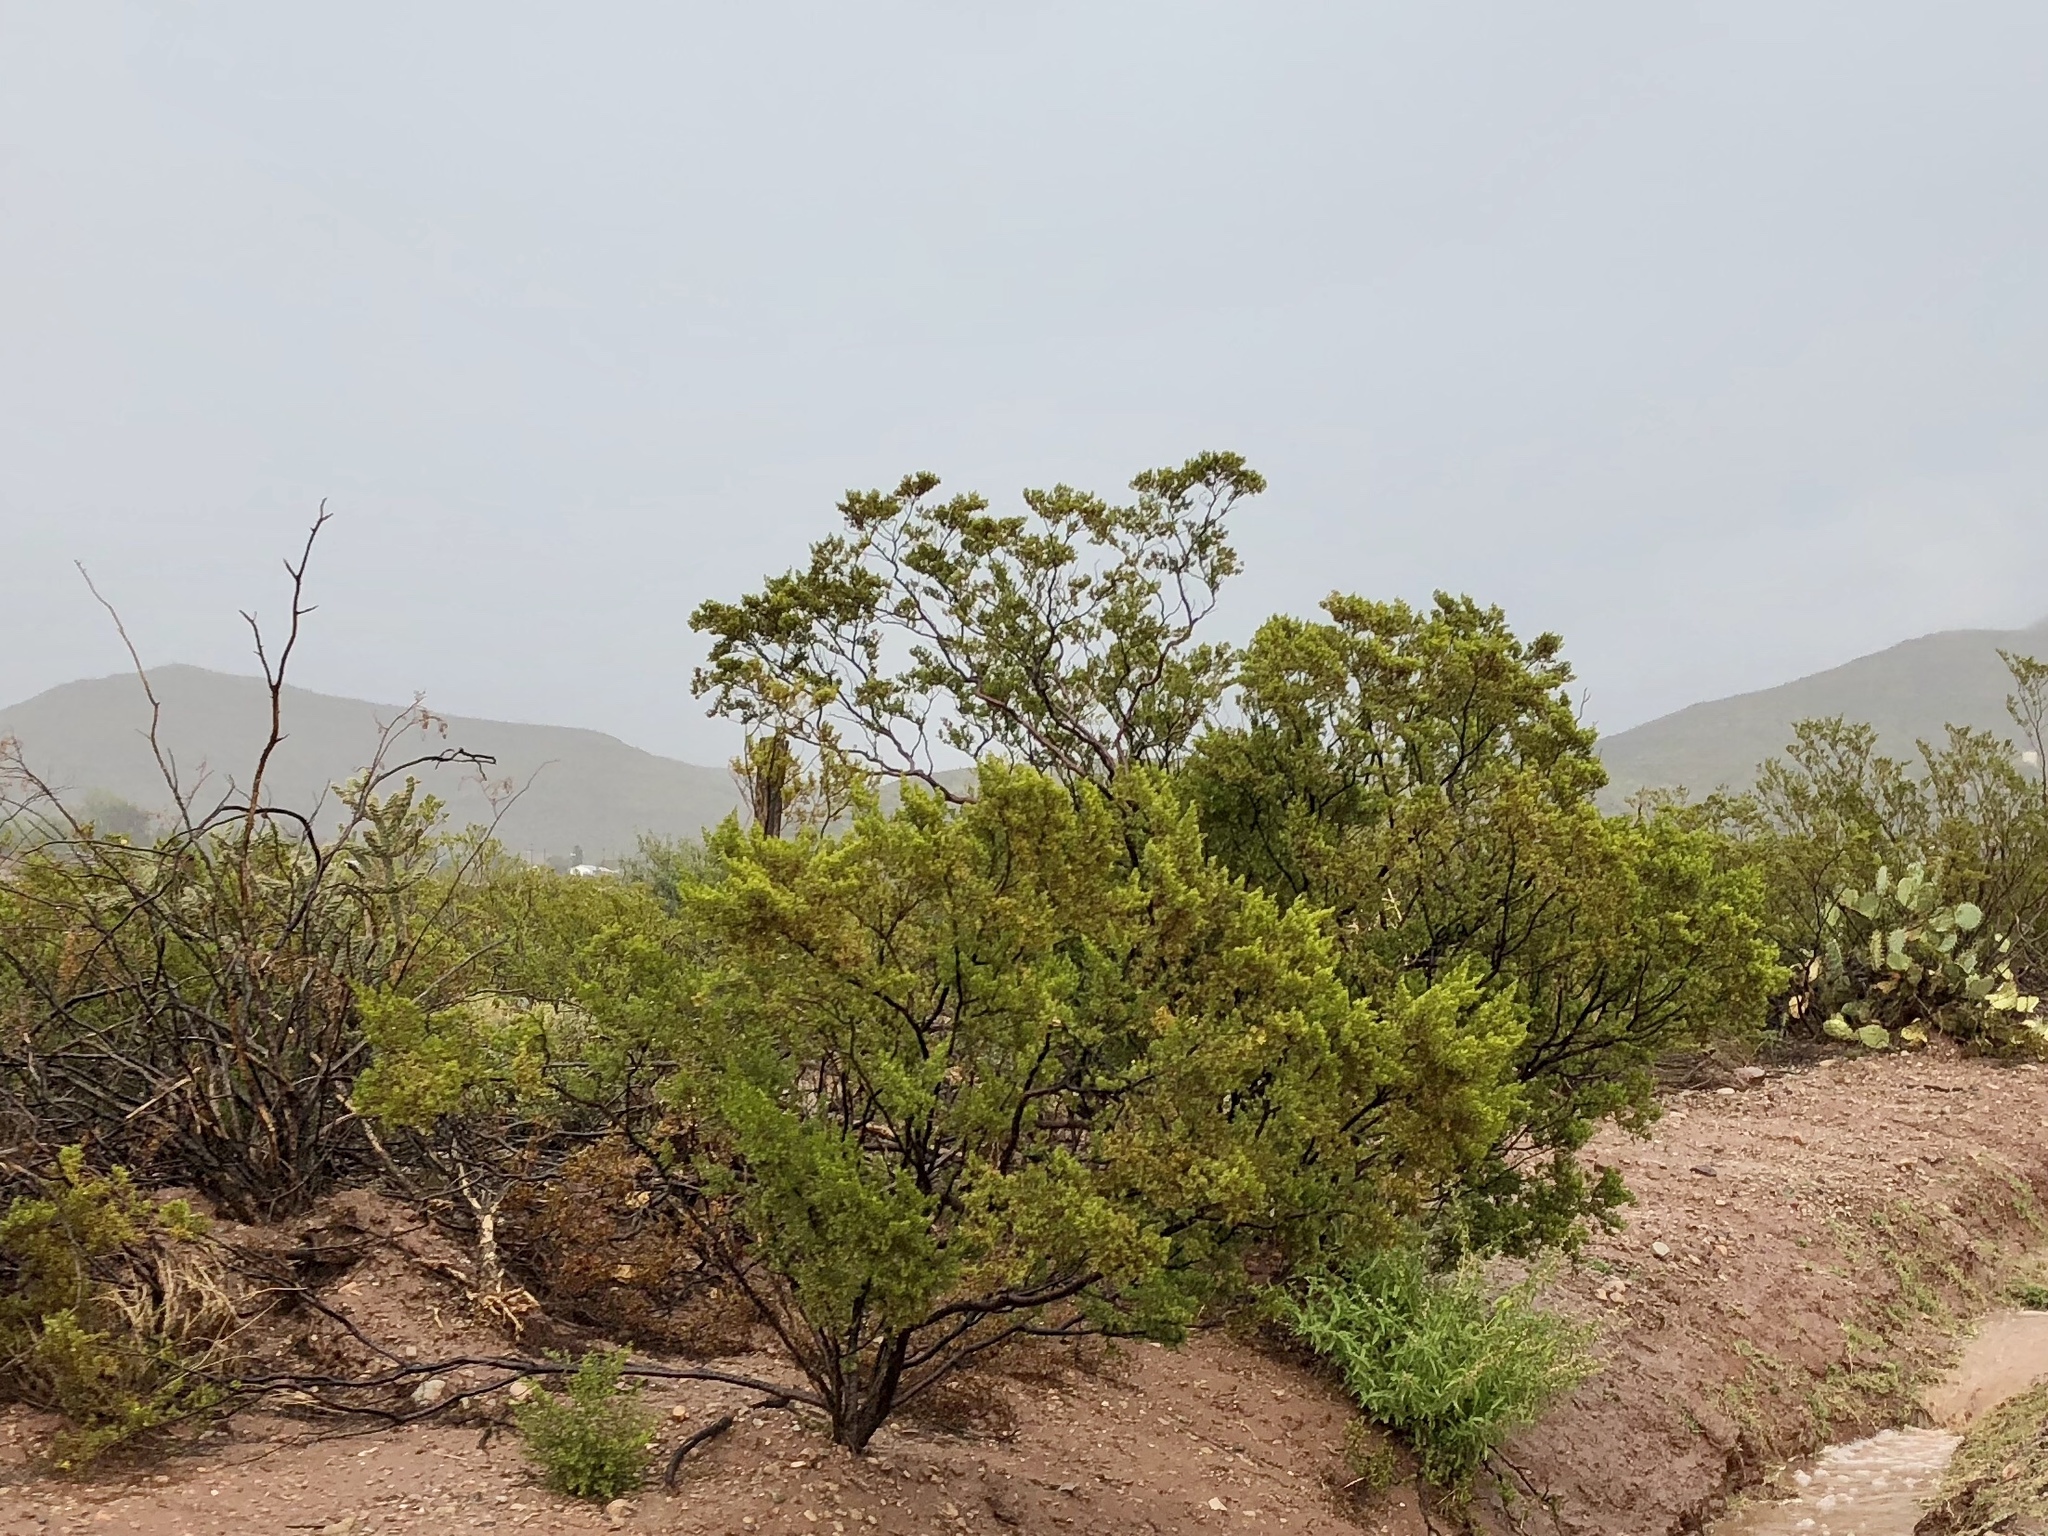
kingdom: Plantae
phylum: Tracheophyta
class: Magnoliopsida
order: Zygophyllales
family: Zygophyllaceae
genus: Larrea
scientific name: Larrea tridentata
